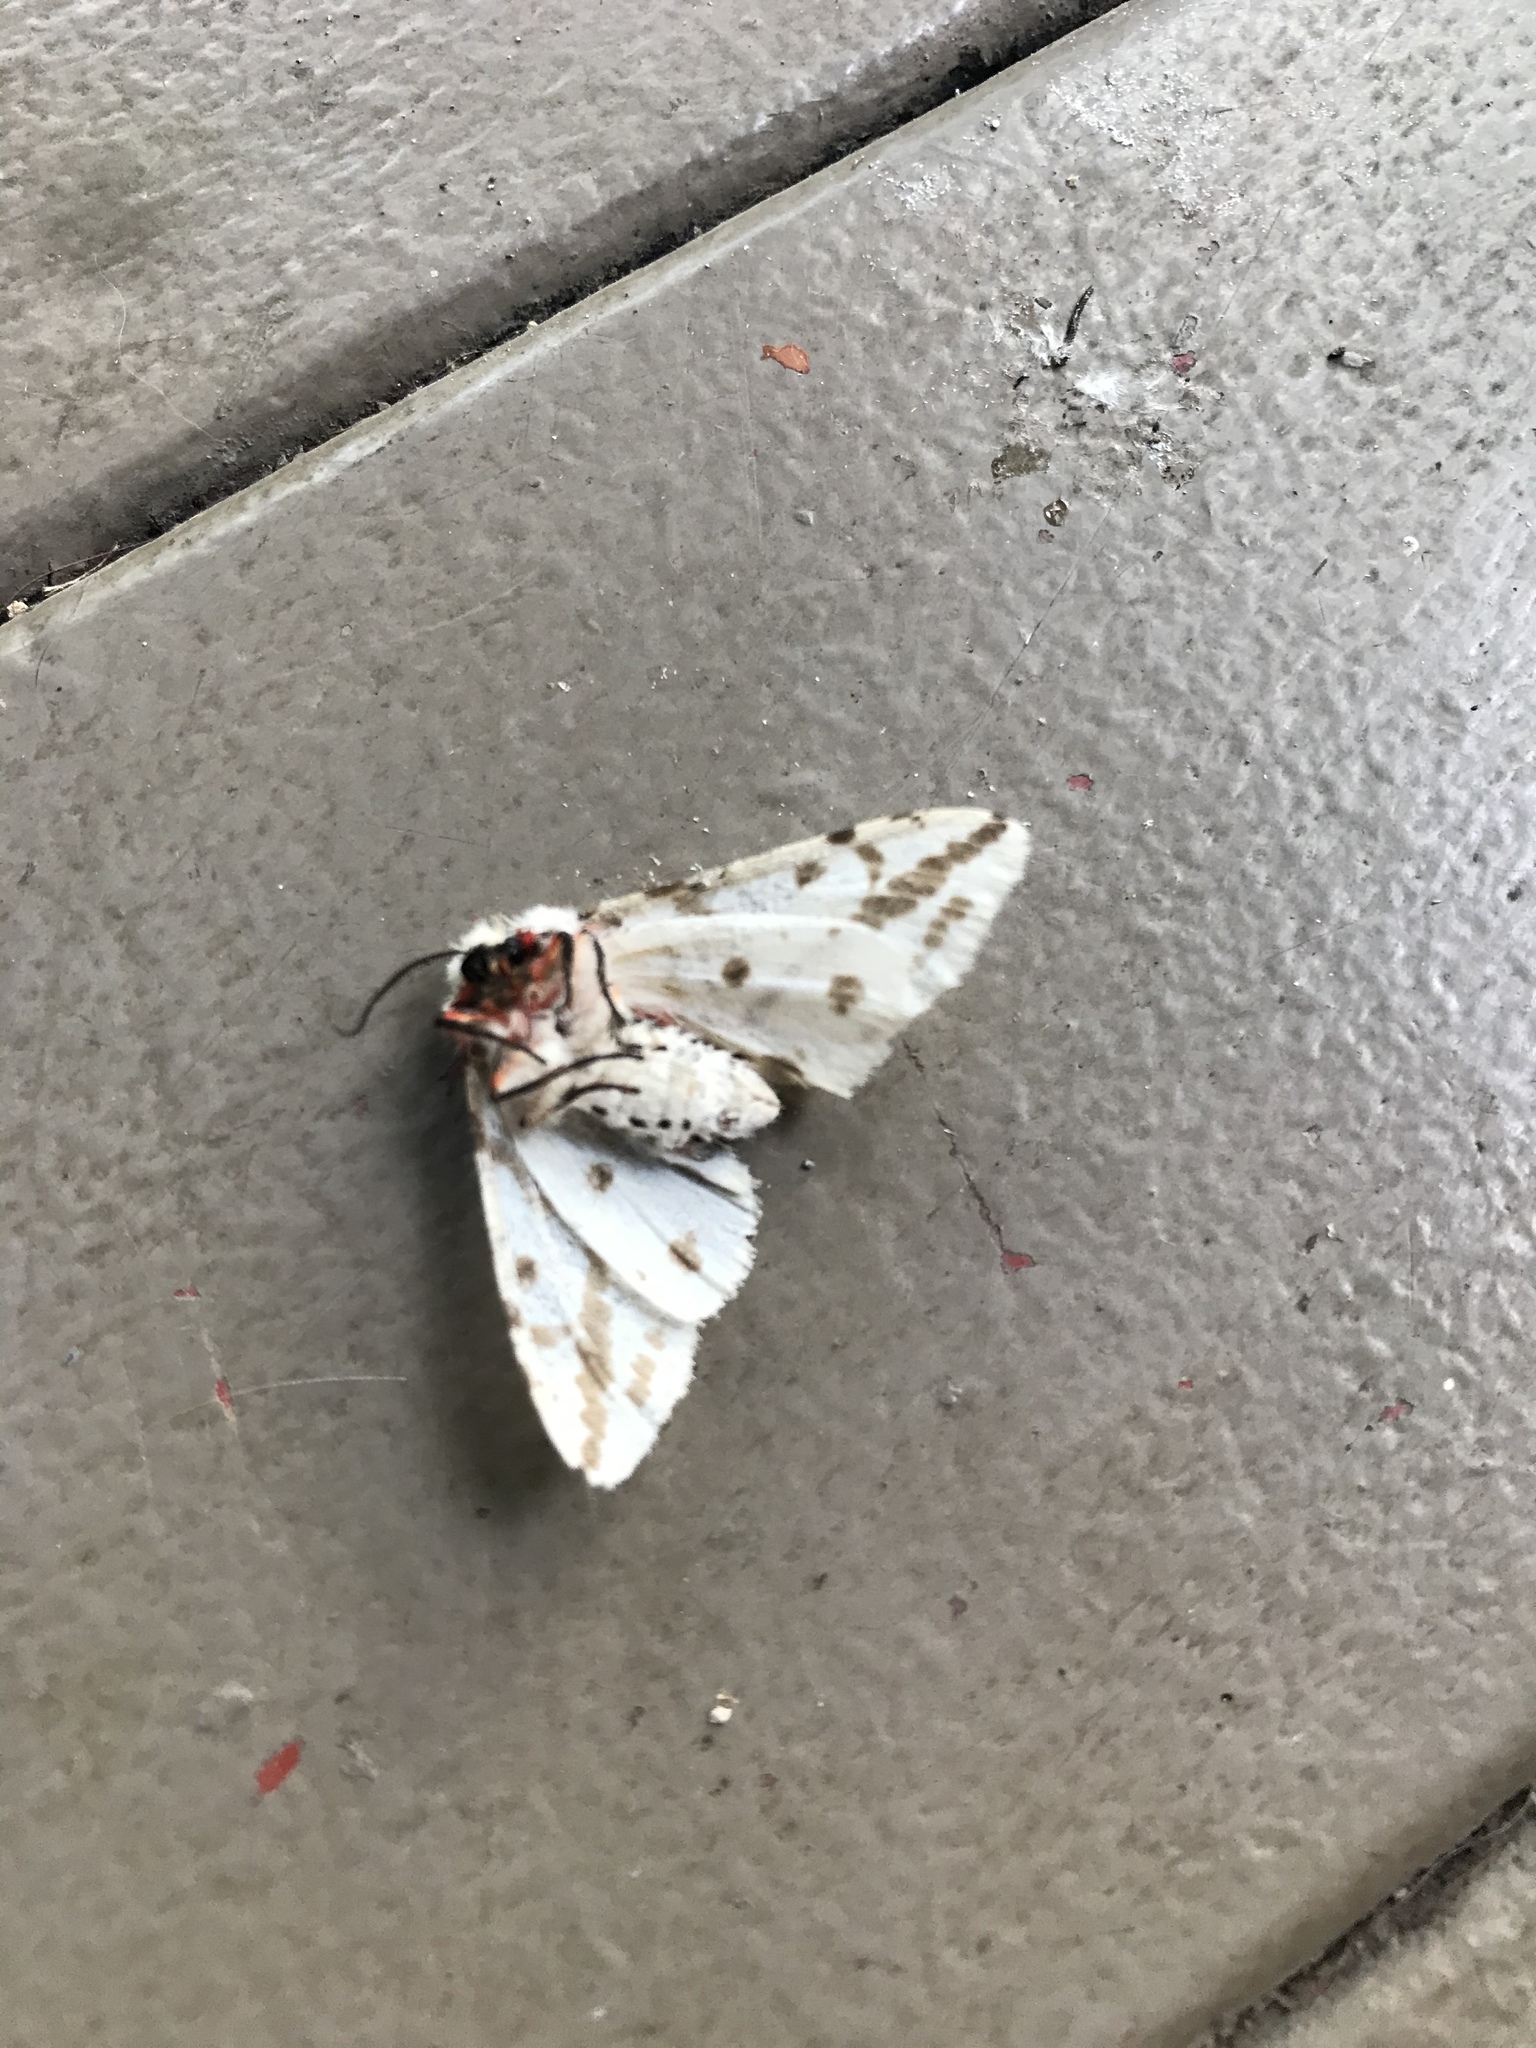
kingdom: Animalia
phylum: Arthropoda
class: Insecta
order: Lepidoptera
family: Erebidae
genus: Ardices
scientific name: Ardices canescens
